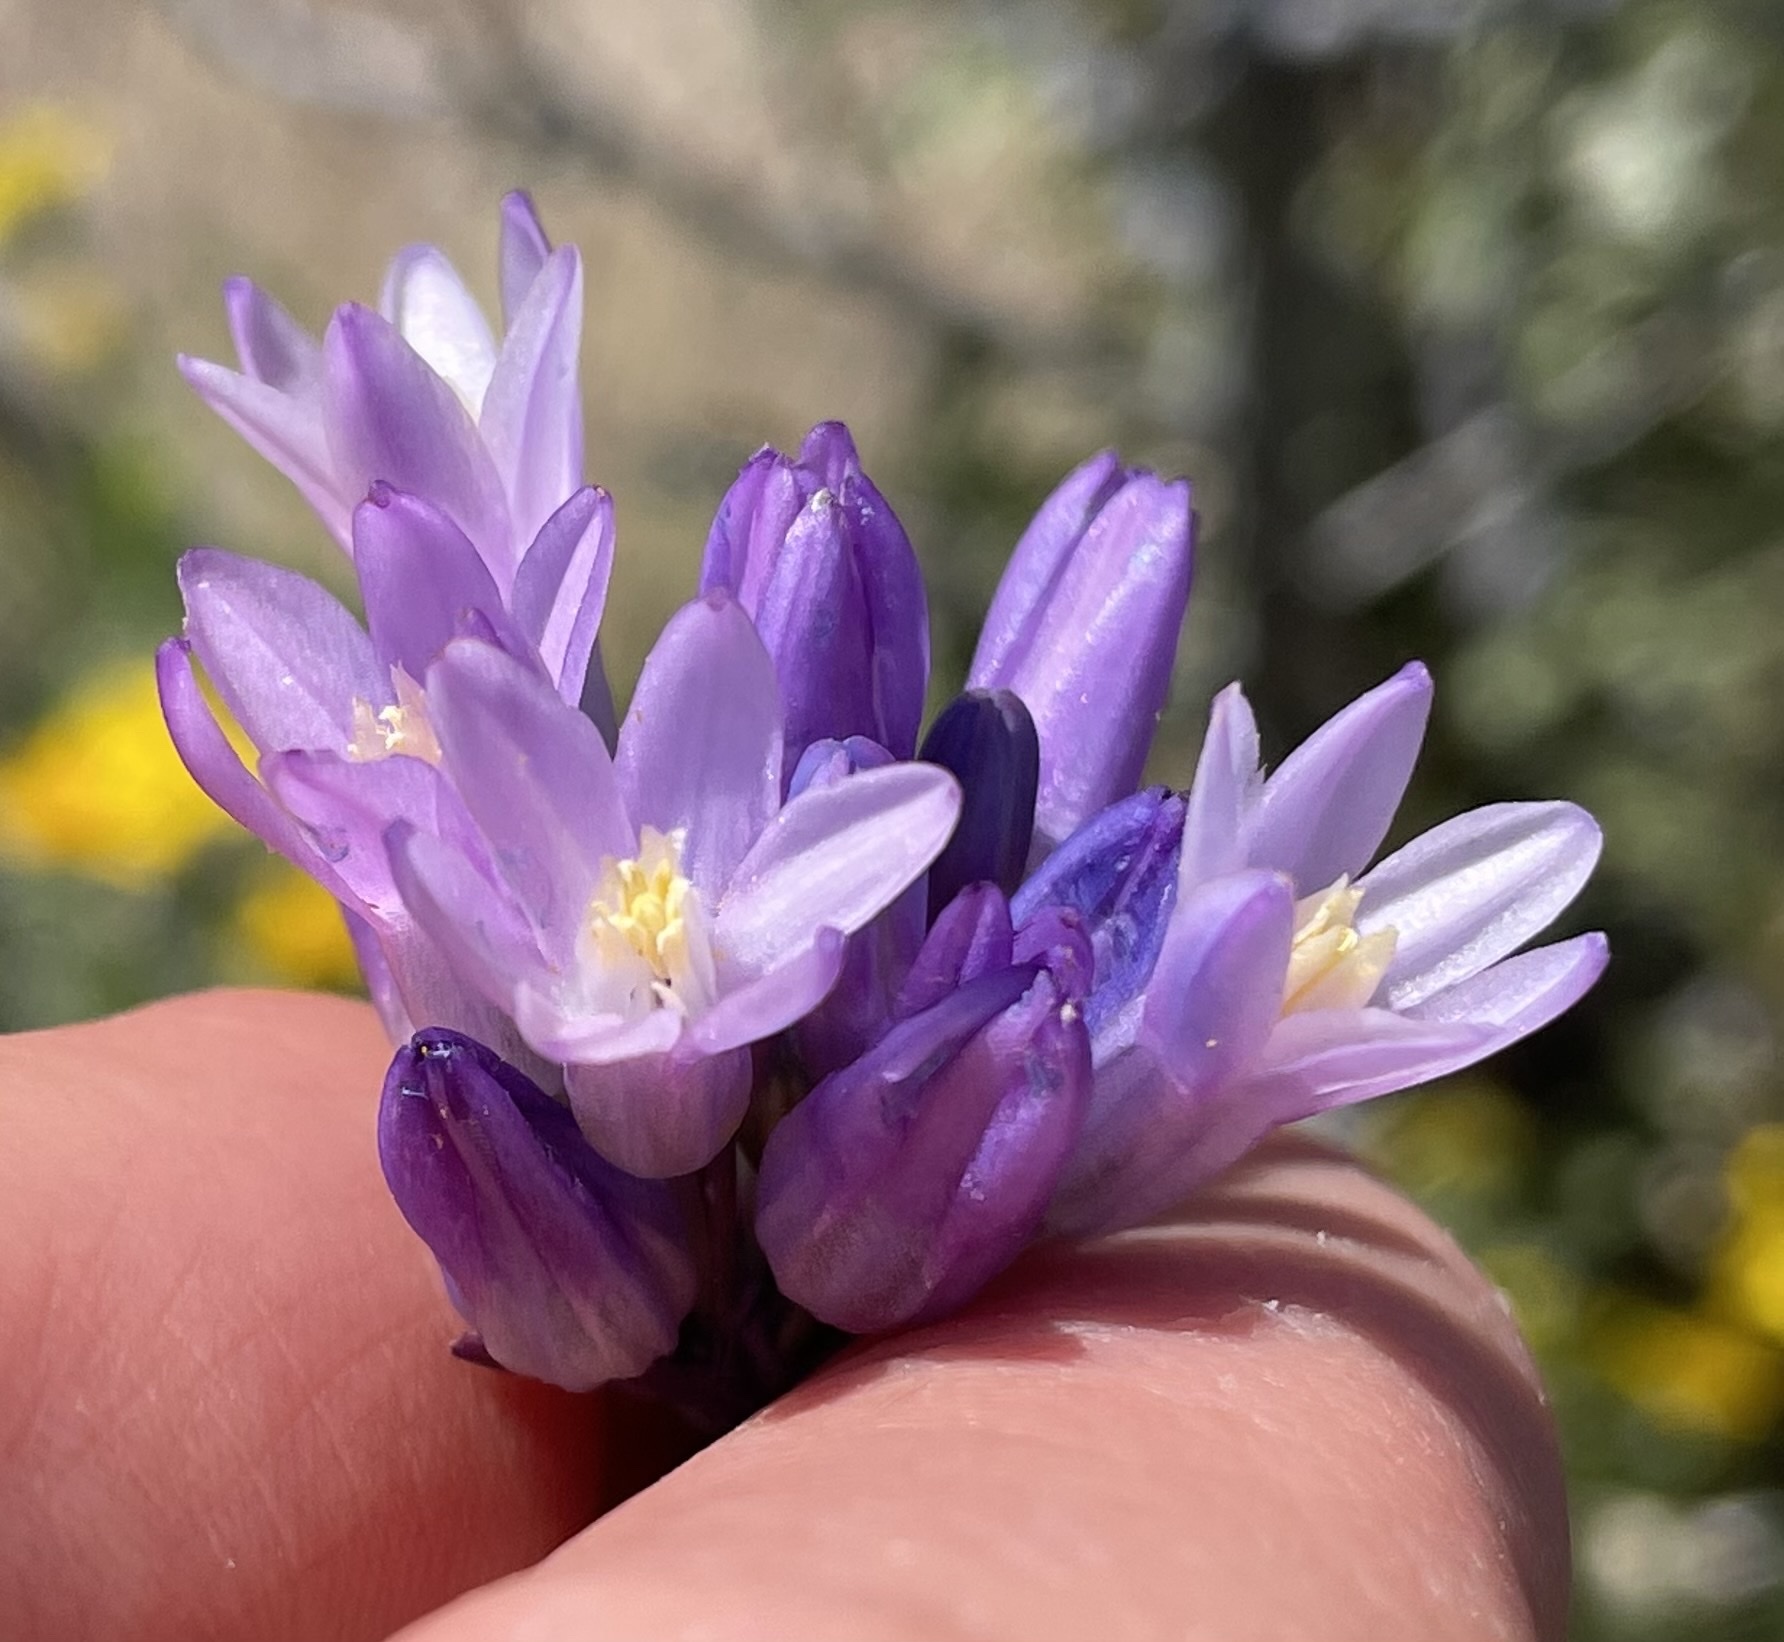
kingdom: Plantae
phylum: Tracheophyta
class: Liliopsida
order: Asparagales
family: Asparagaceae
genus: Dipterostemon
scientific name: Dipterostemon capitatus
